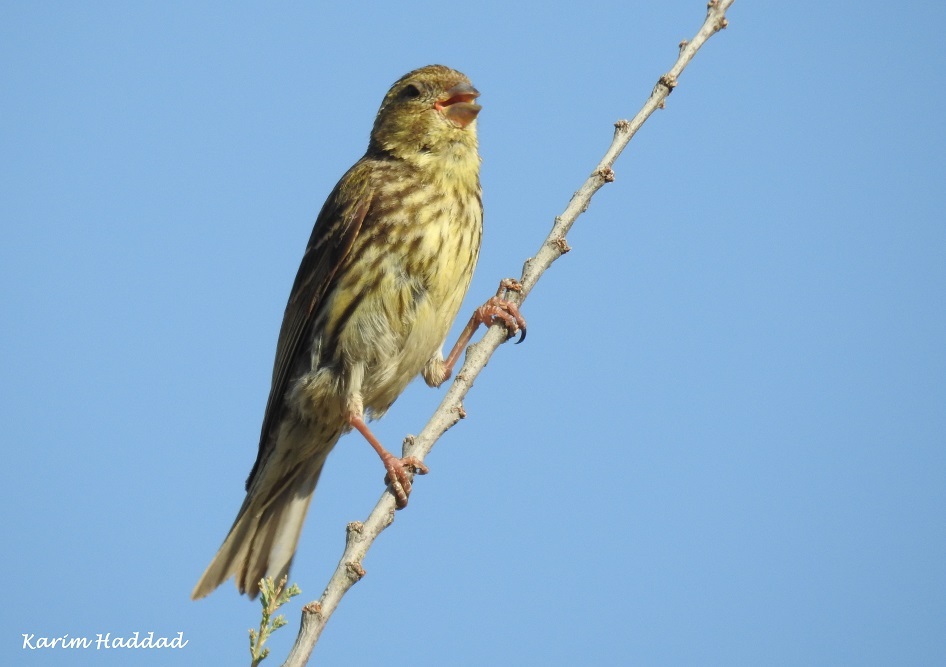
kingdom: Animalia
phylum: Chordata
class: Aves
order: Passeriformes
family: Fringillidae
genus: Serinus
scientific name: Serinus serinus
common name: European serin
